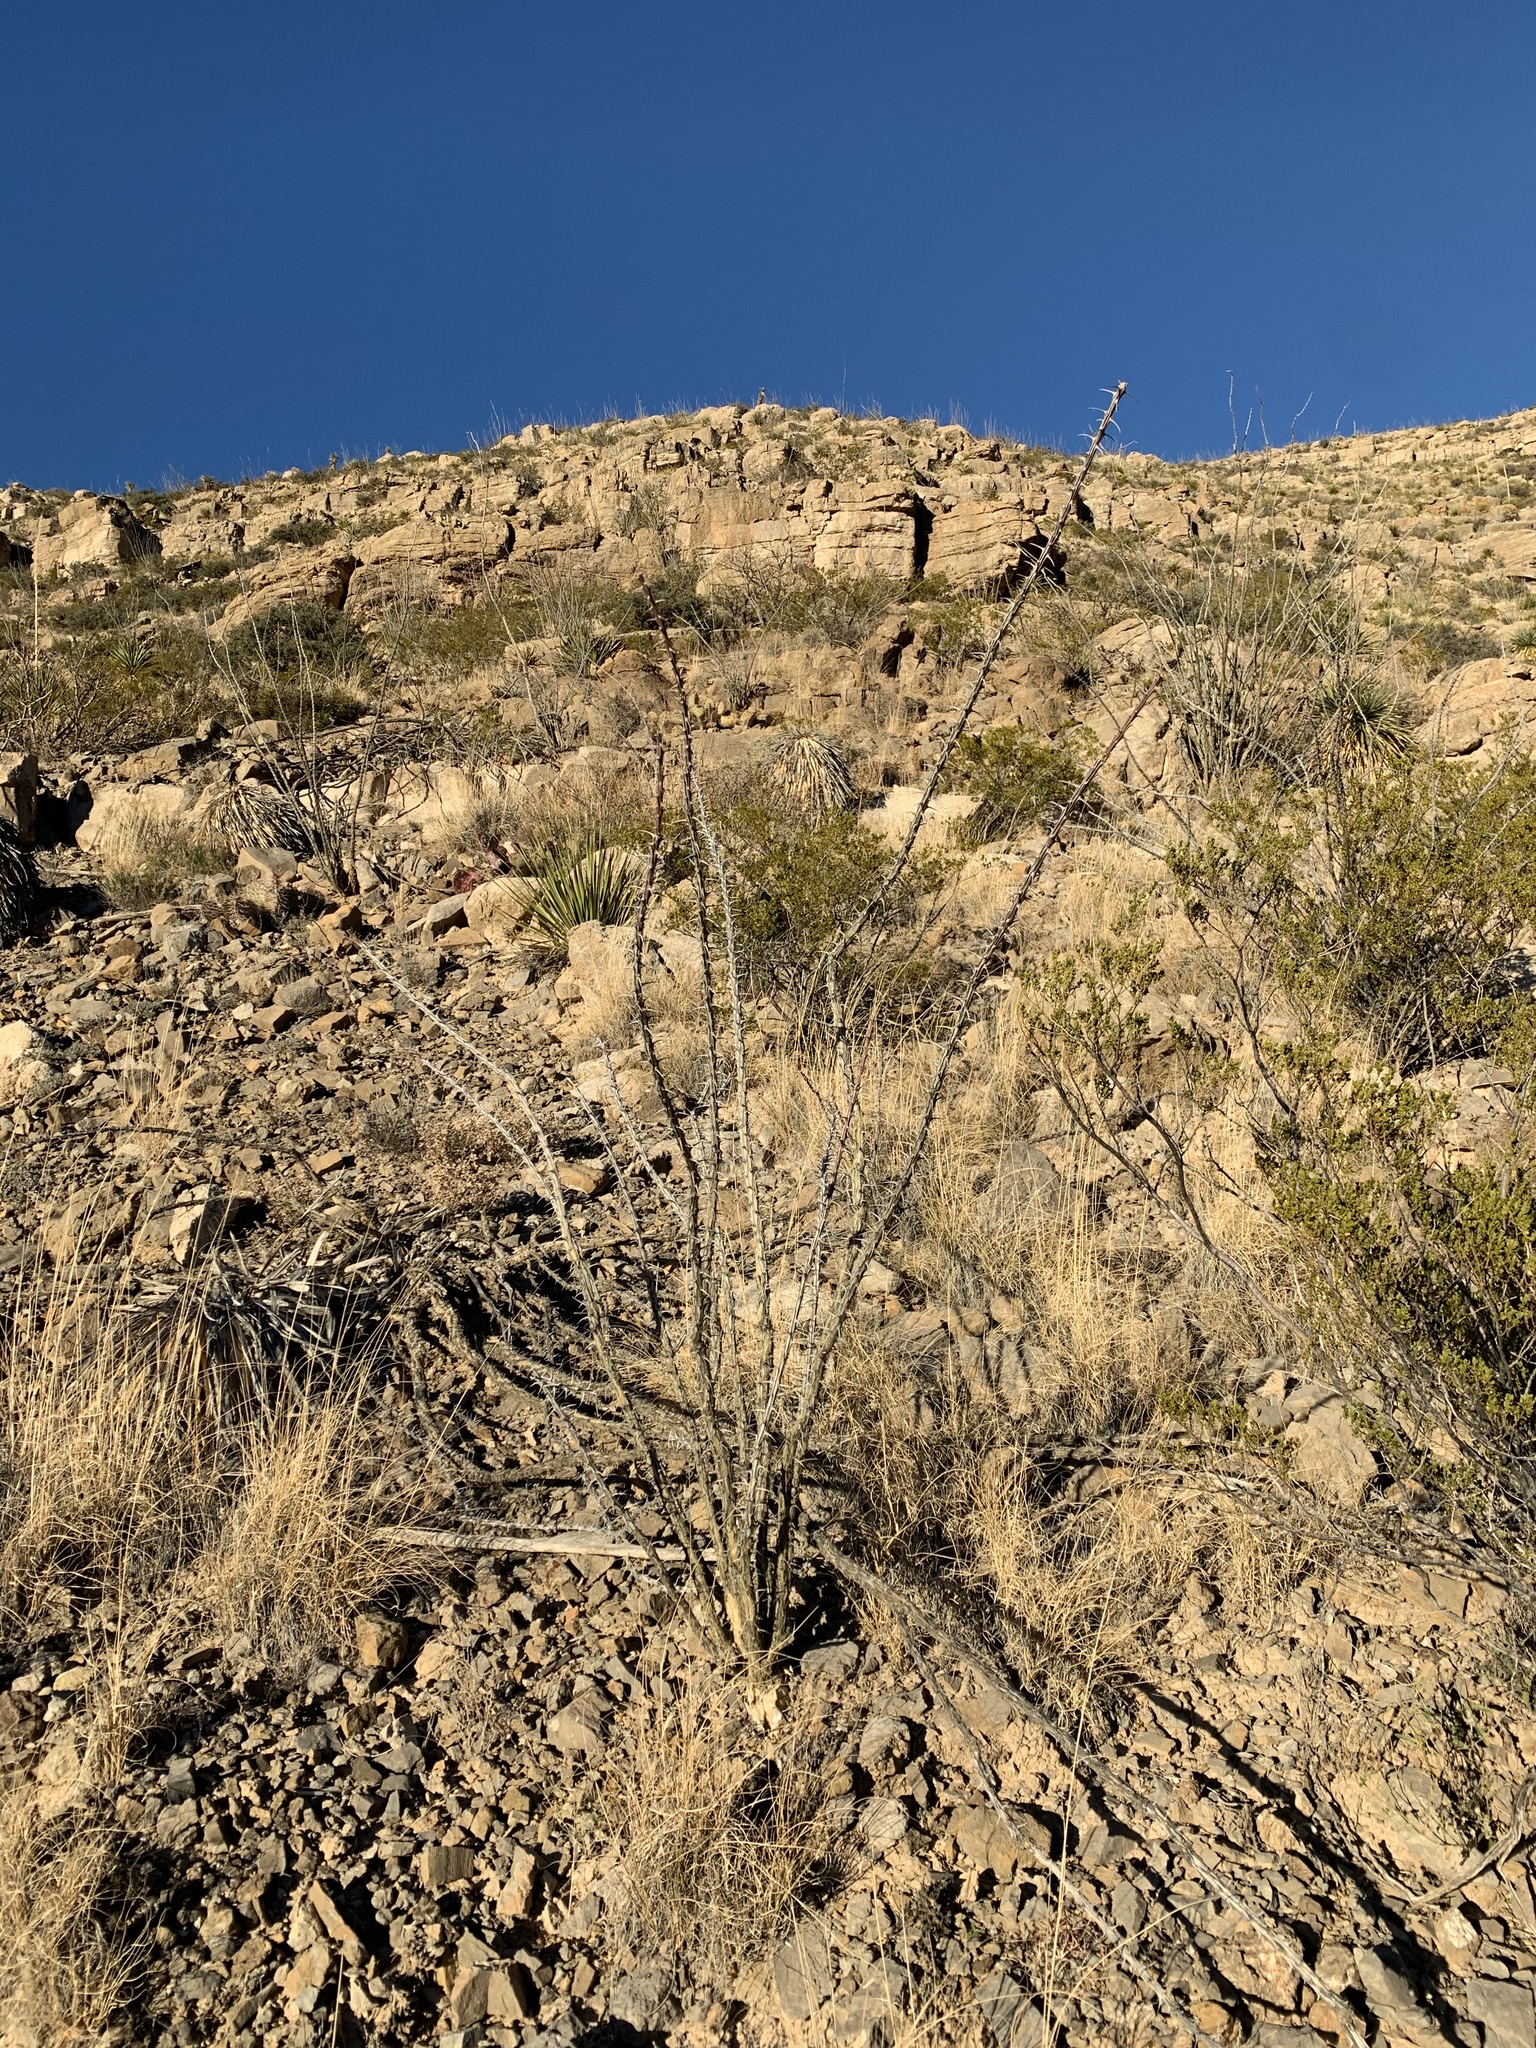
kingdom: Plantae
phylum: Tracheophyta
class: Magnoliopsida
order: Ericales
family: Fouquieriaceae
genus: Fouquieria
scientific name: Fouquieria splendens
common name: Vine-cactus
